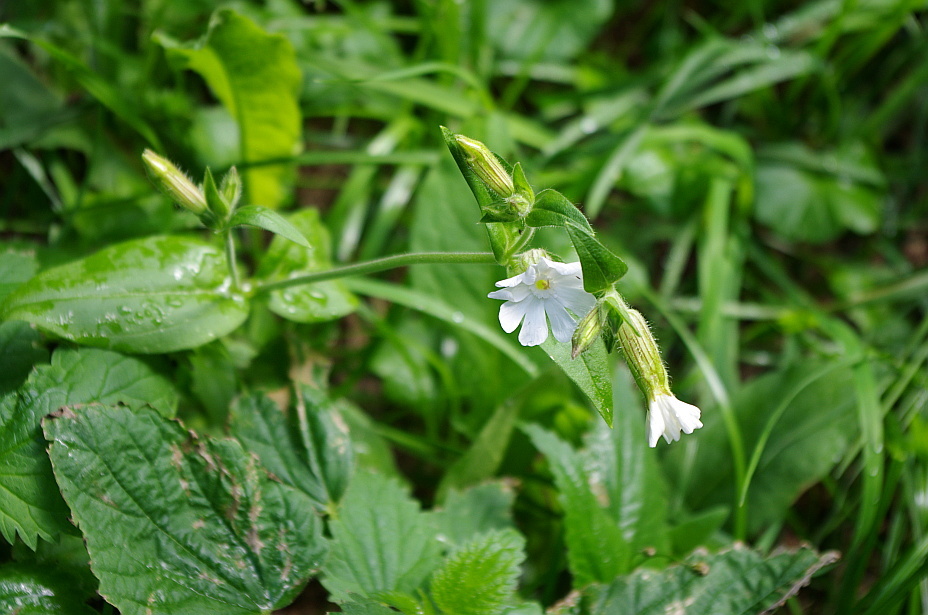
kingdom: Plantae
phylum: Tracheophyta
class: Magnoliopsida
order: Caryophyllales
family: Caryophyllaceae
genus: Silene
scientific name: Silene latifolia
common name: White campion
